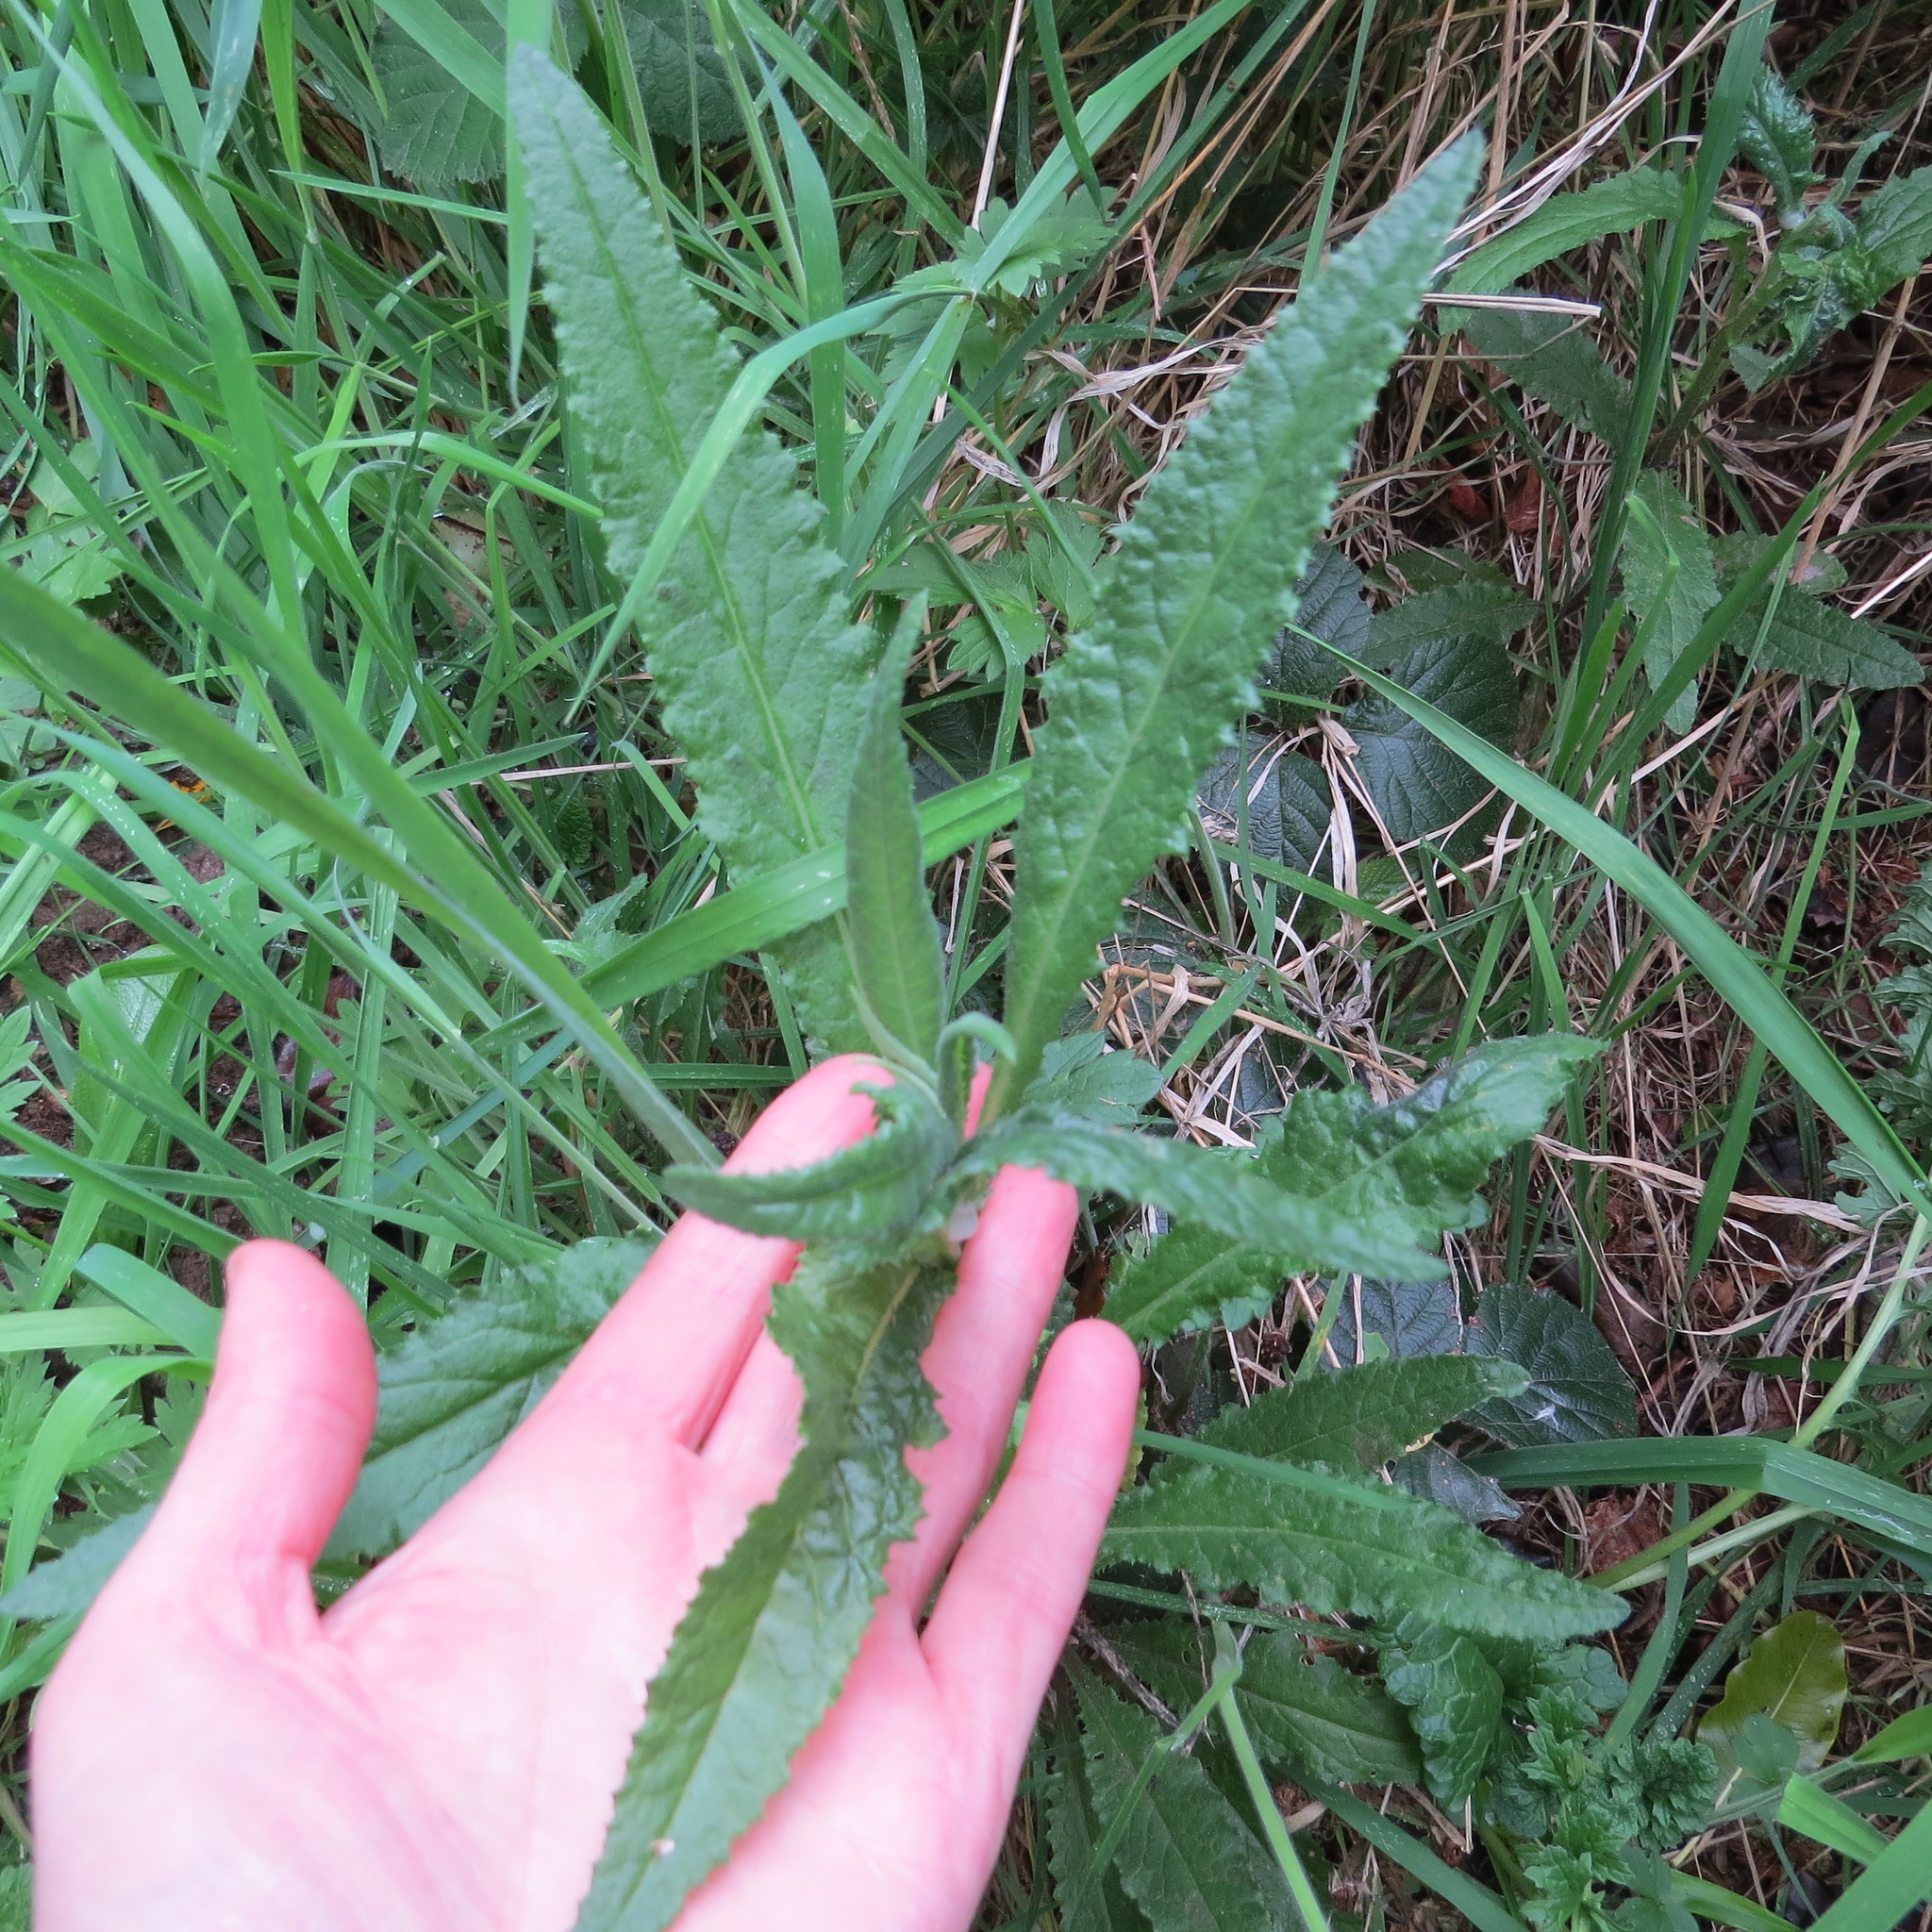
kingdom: Plantae
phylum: Tracheophyta
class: Magnoliopsida
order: Asterales
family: Asteraceae
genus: Senecio
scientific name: Senecio minimus
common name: Toothed fireweed
